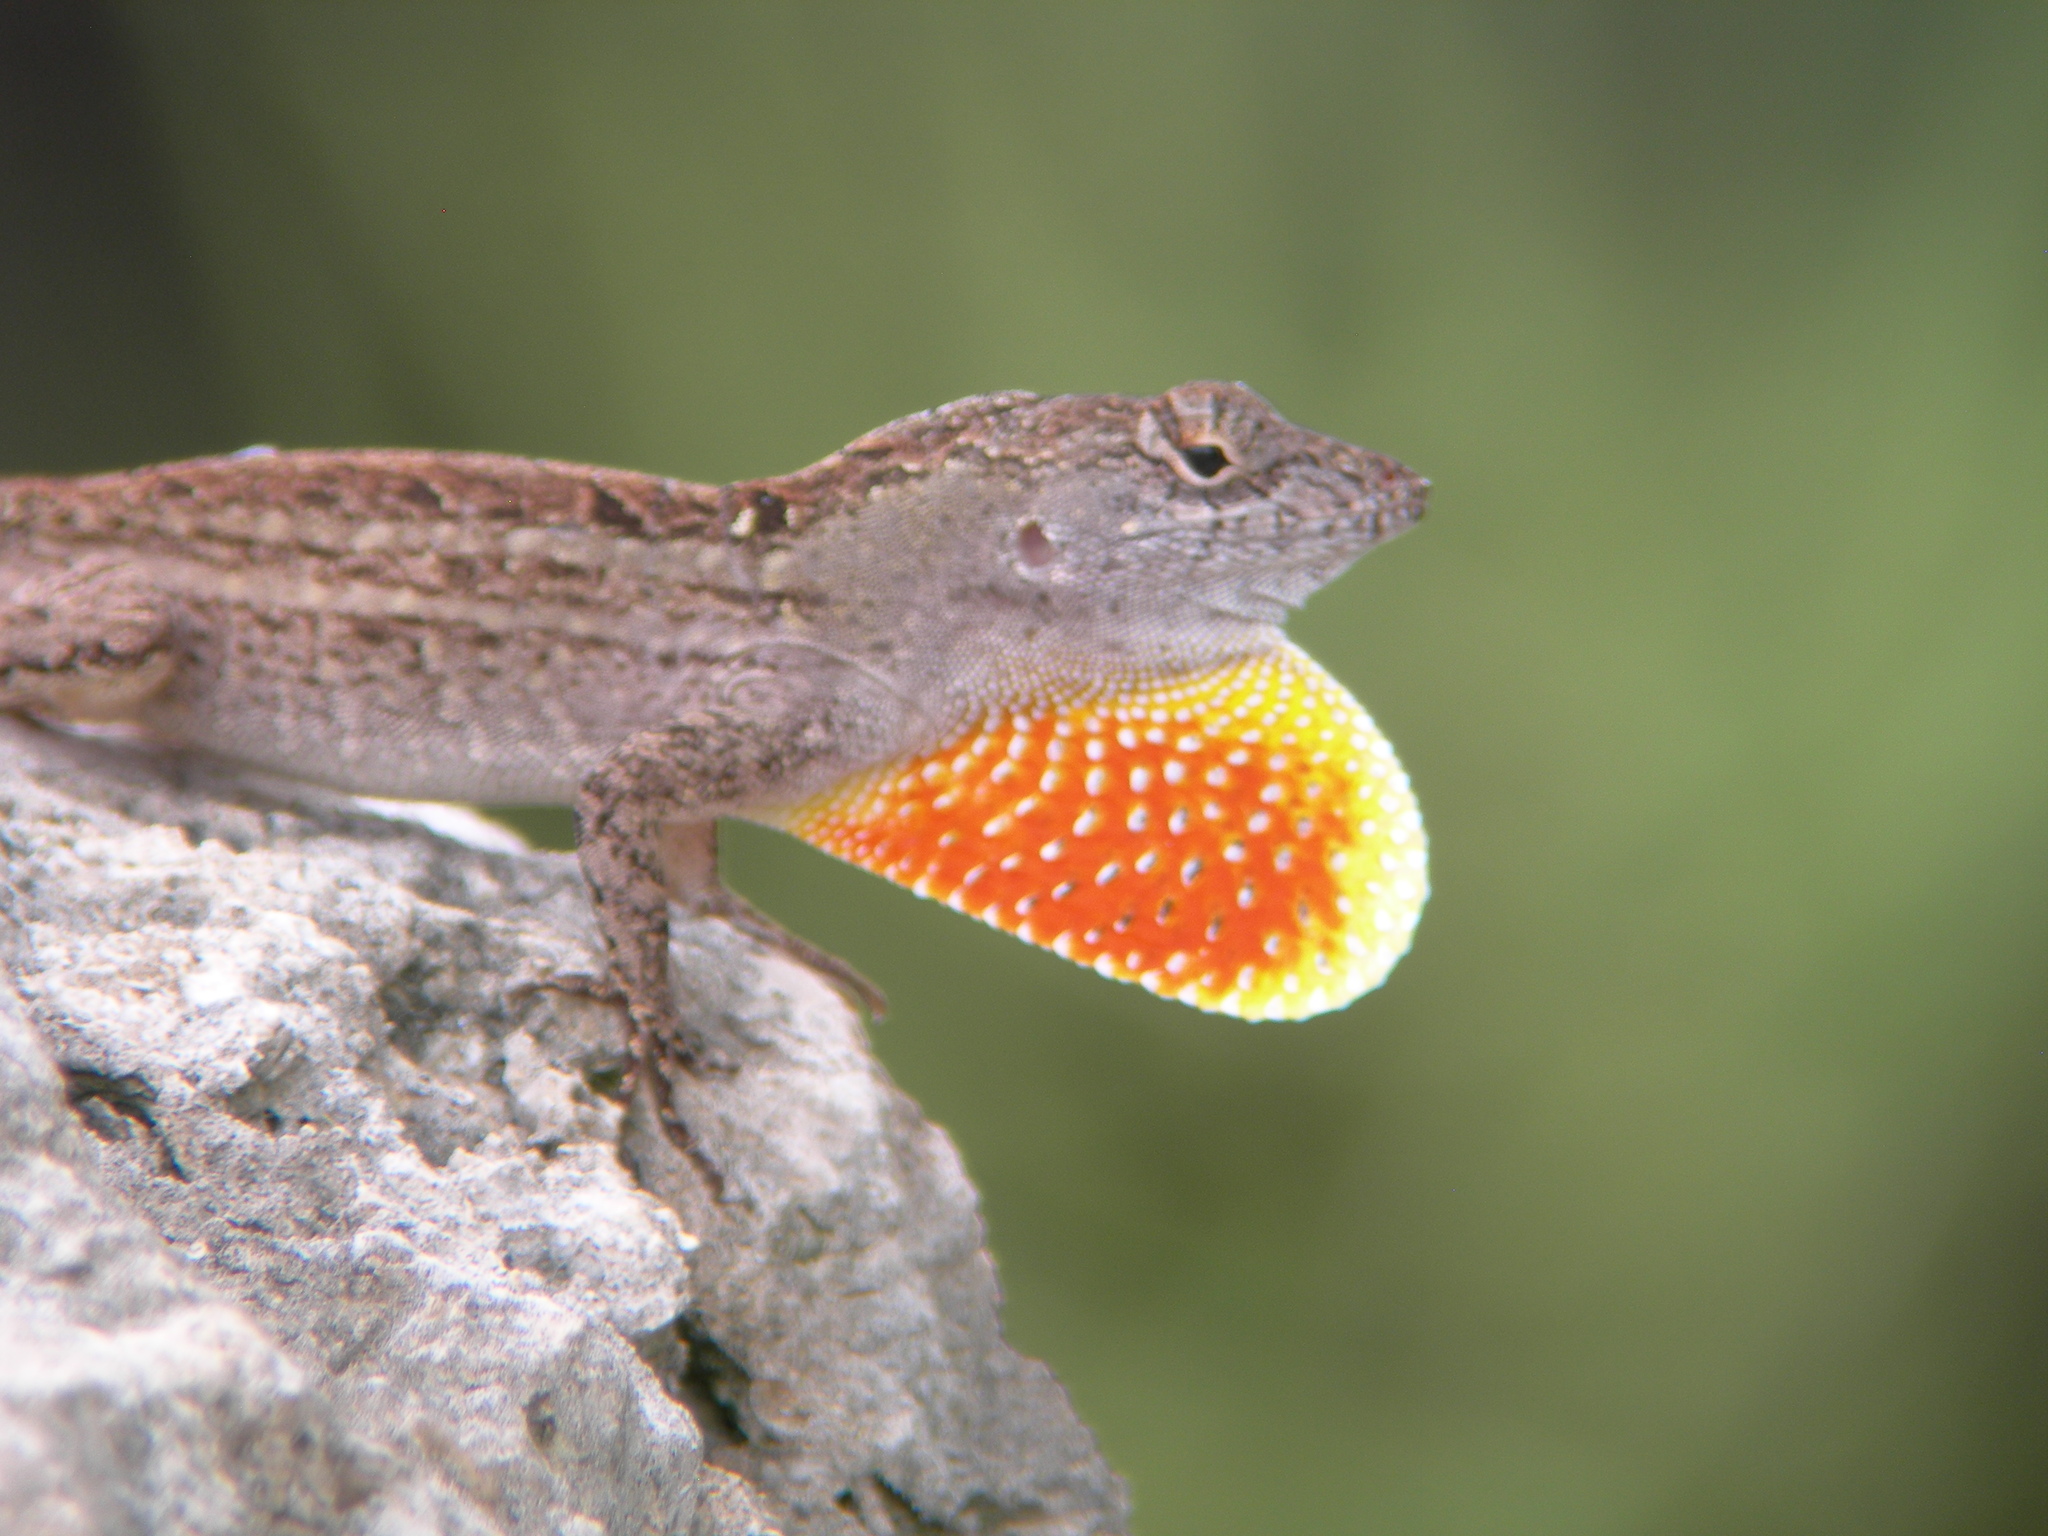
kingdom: Animalia
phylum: Chordata
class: Squamata
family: Dactyloidae
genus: Anolis
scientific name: Anolis sagrei
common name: Brown anole
